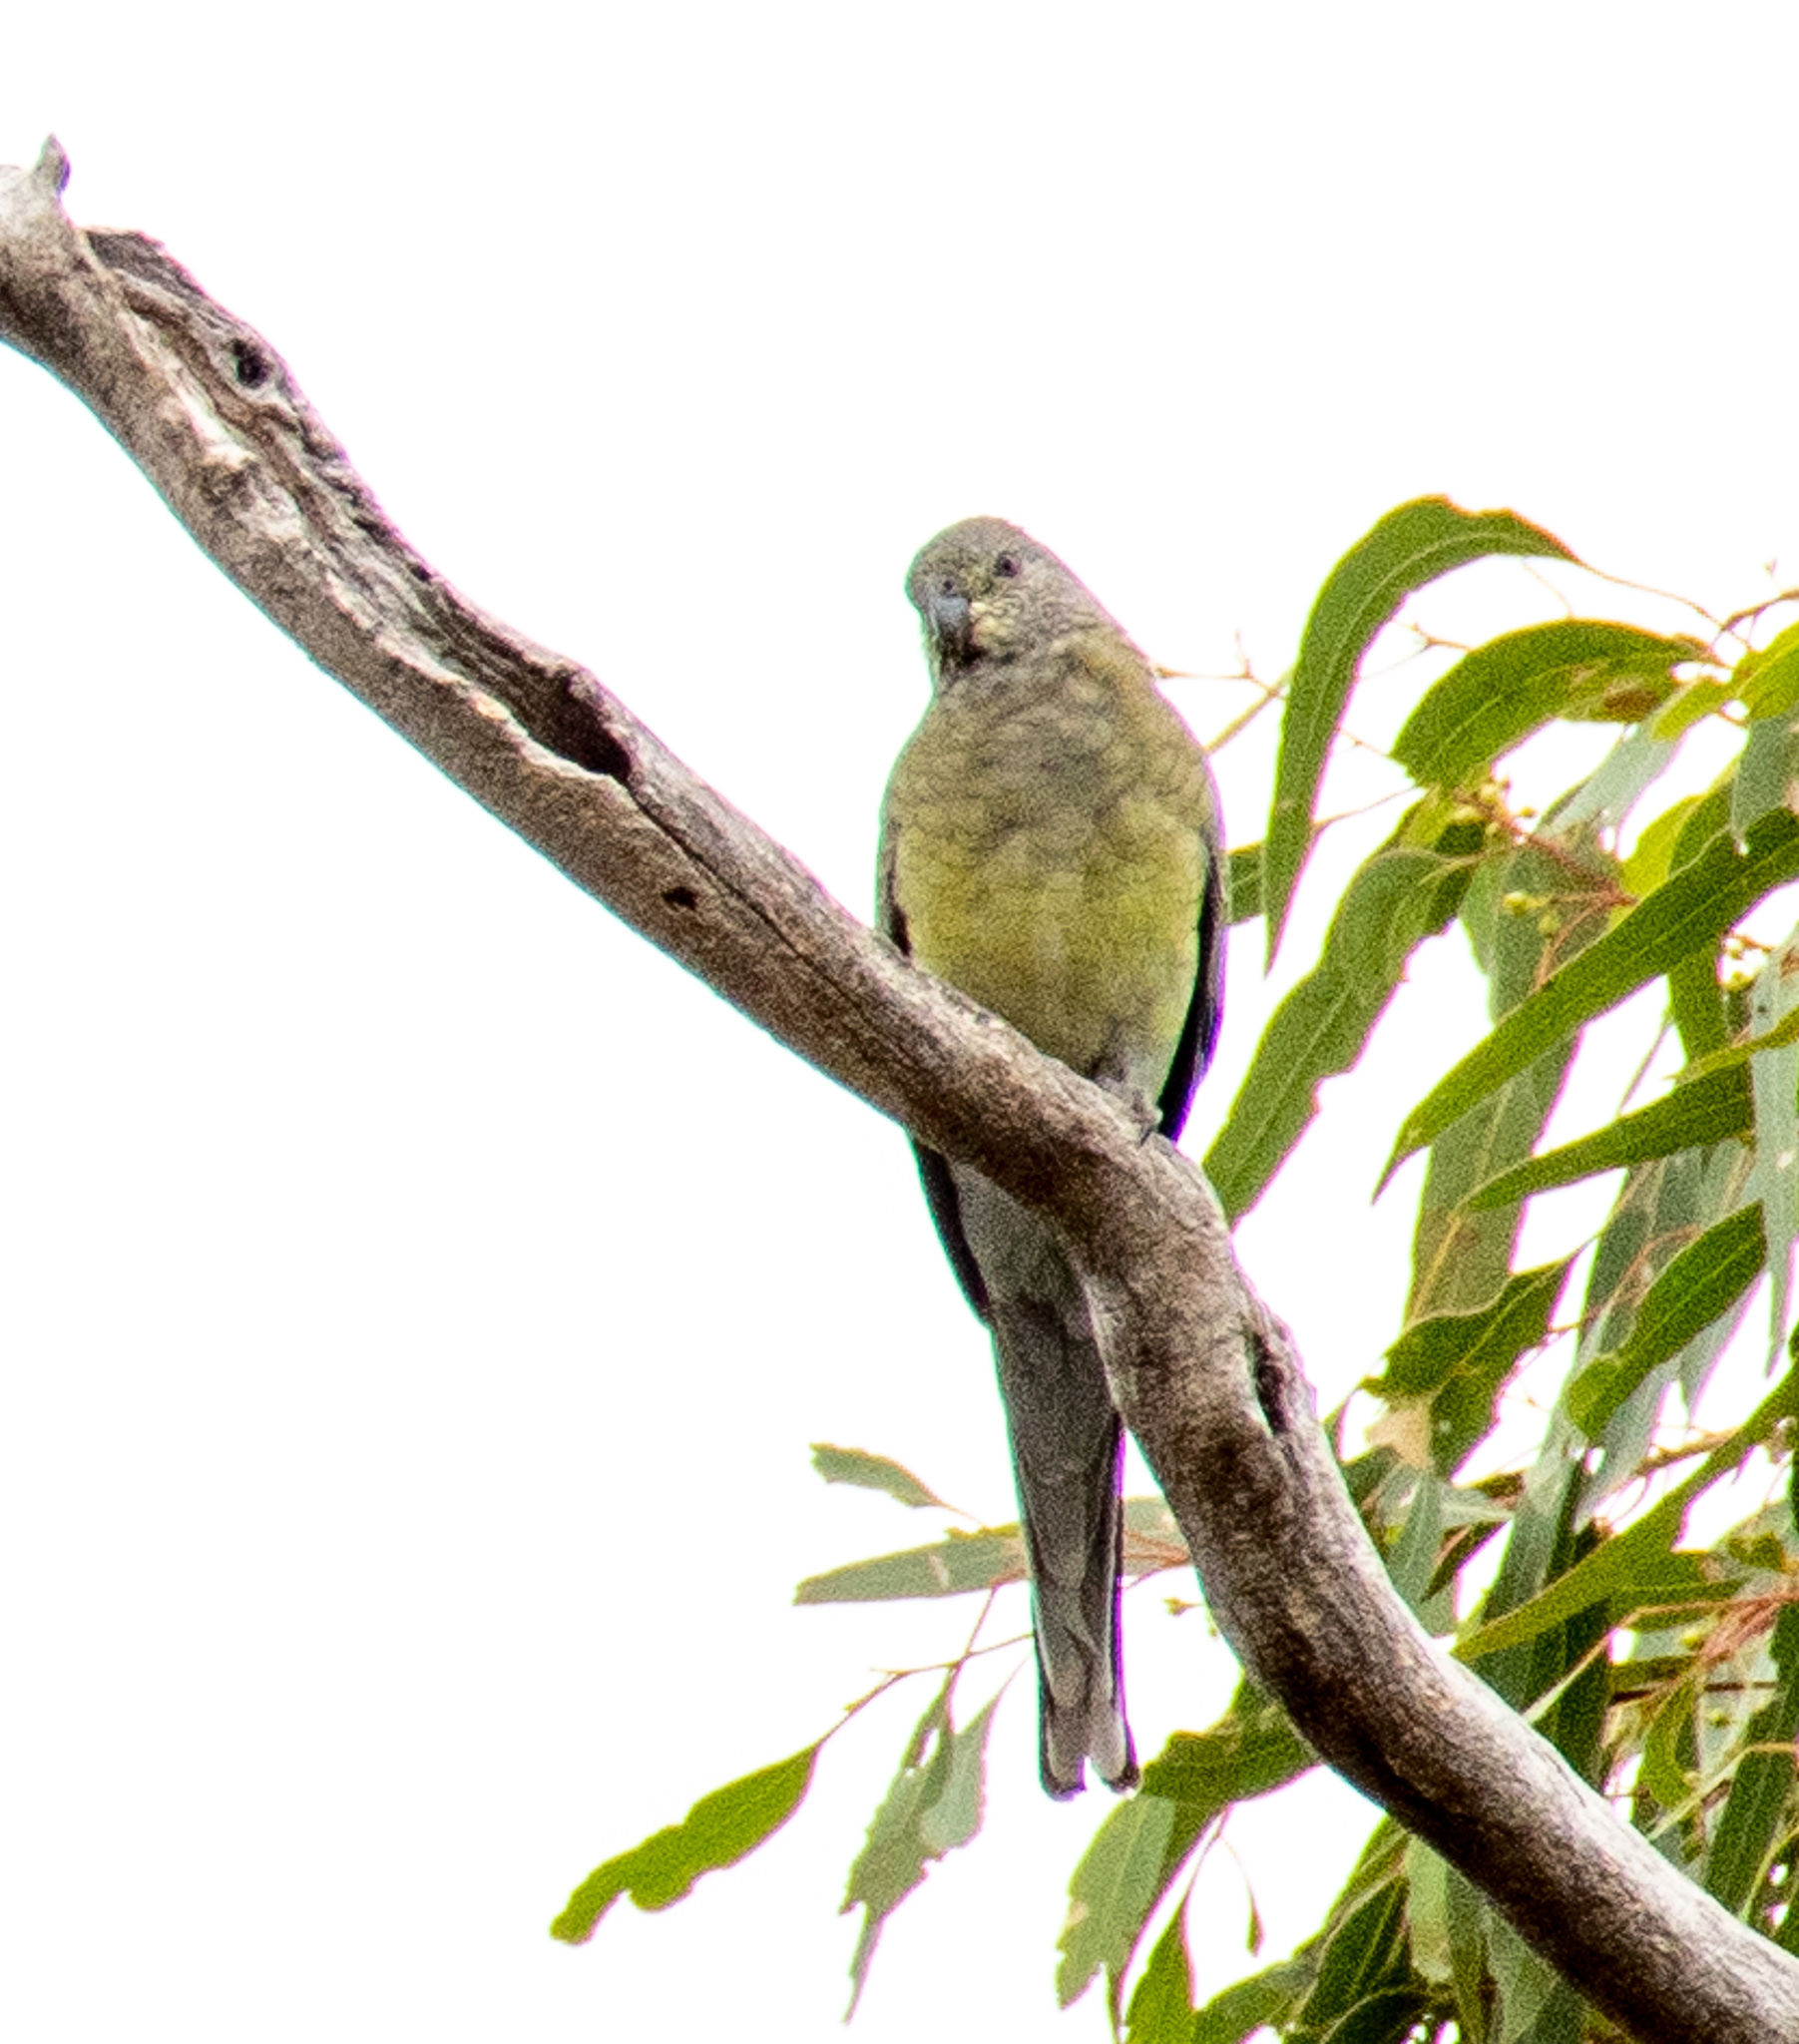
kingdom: Animalia
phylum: Chordata
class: Aves
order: Psittaciformes
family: Psittacidae
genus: Psephotus
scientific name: Psephotus haematonotus
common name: Red-rumped parrot
